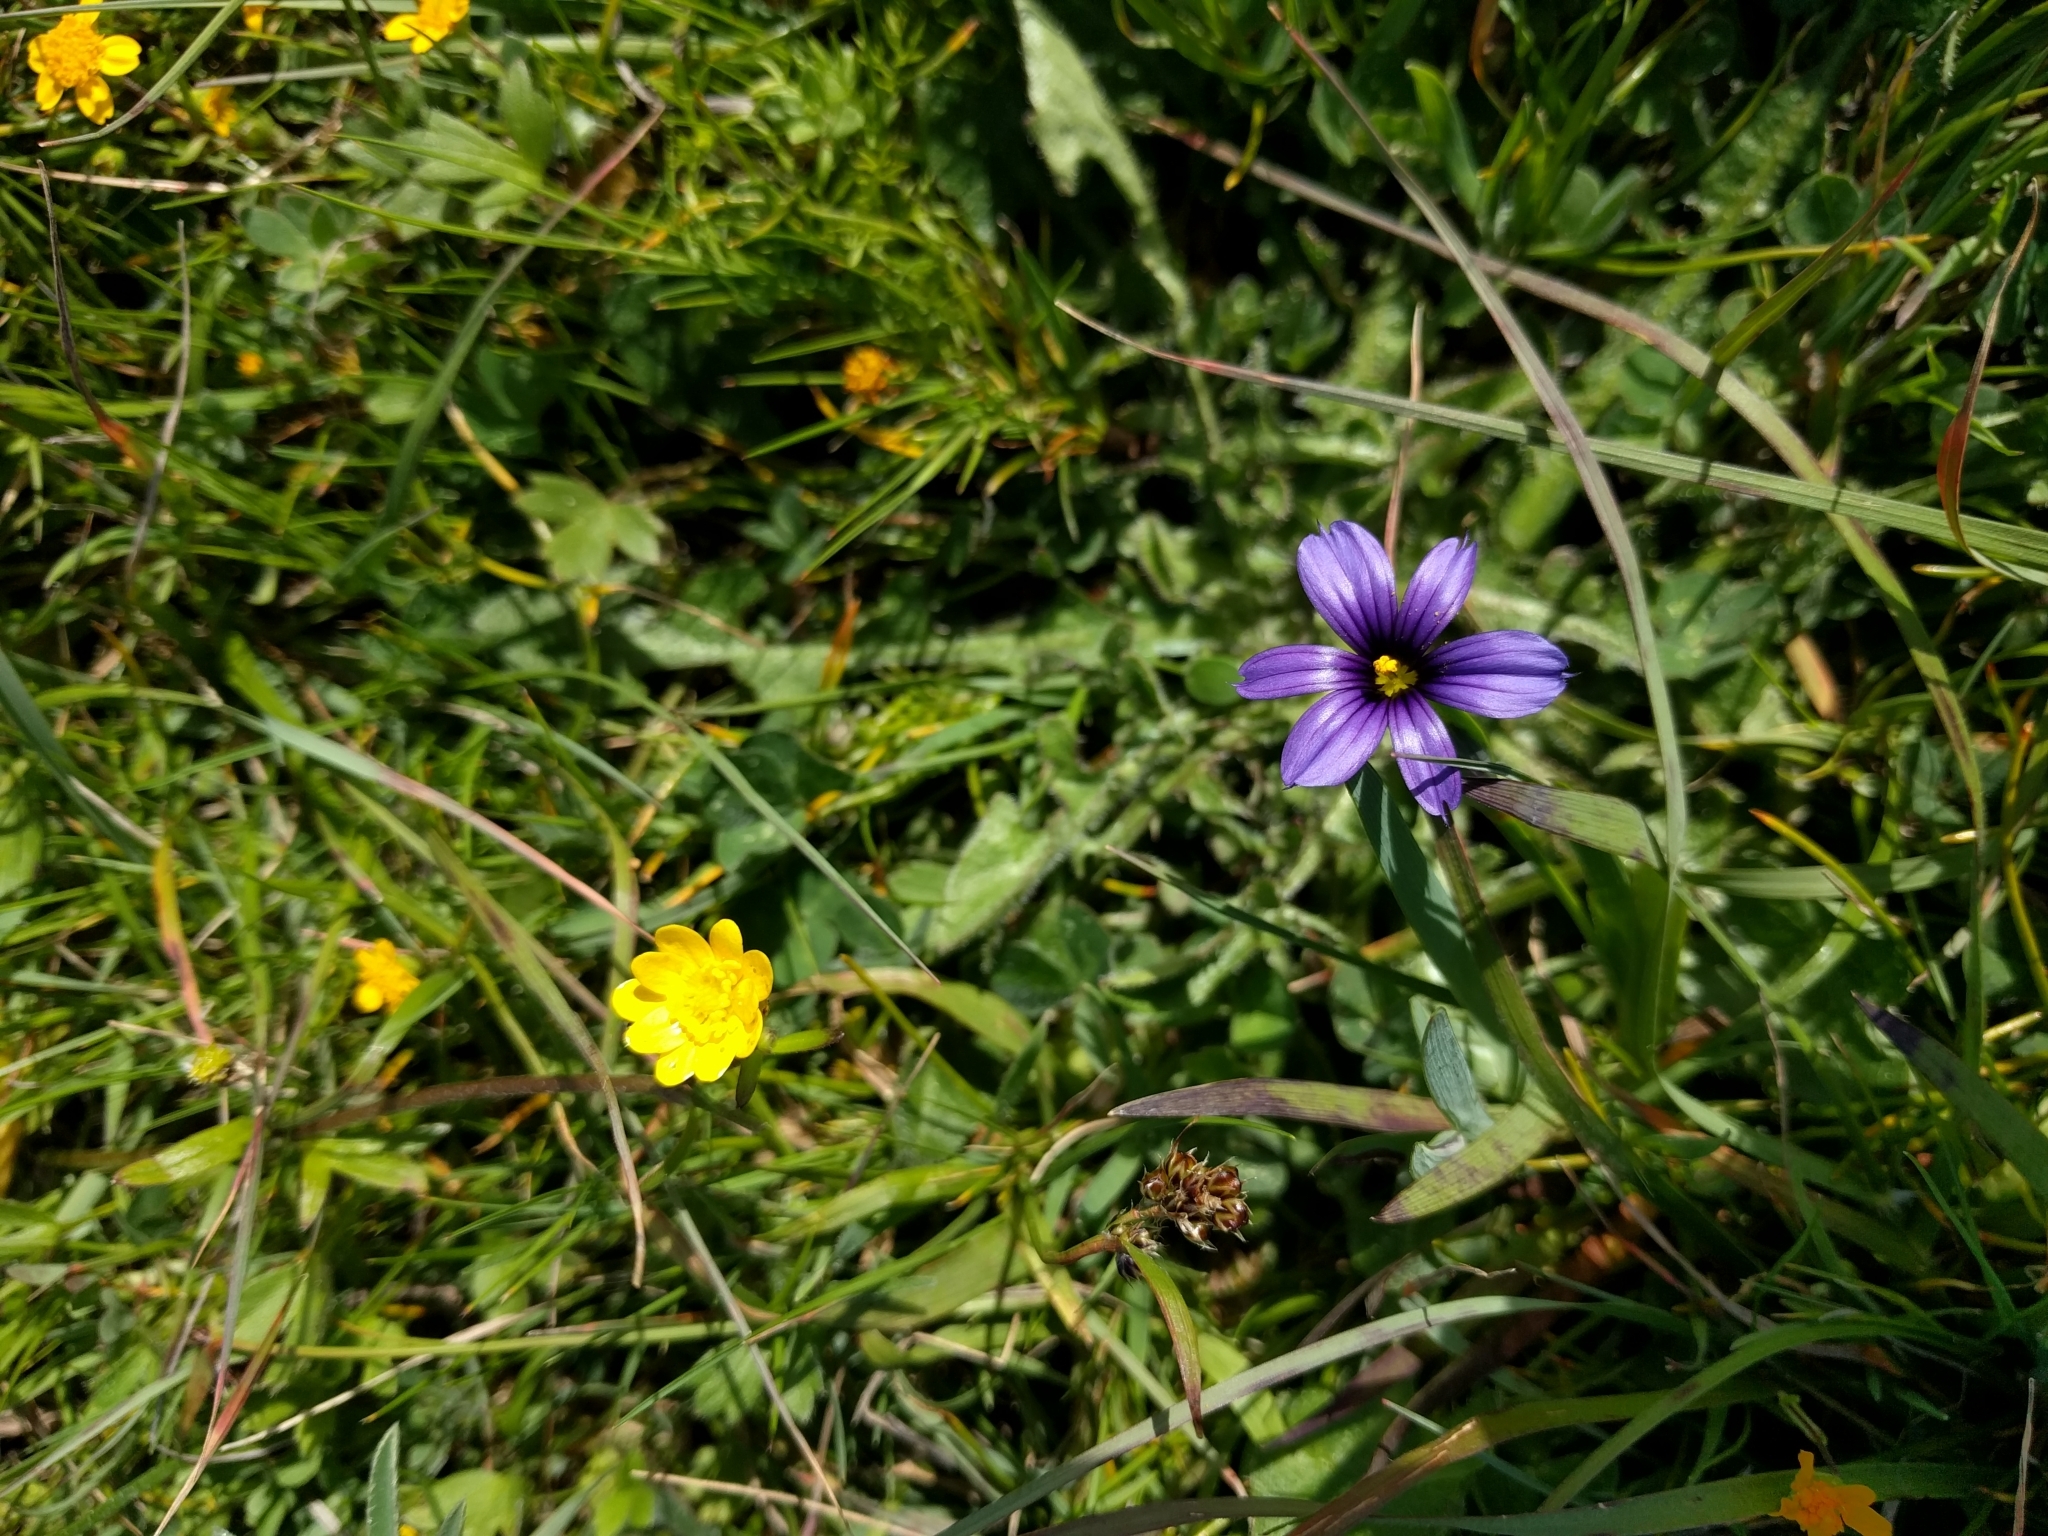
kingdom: Plantae
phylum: Tracheophyta
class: Liliopsida
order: Asparagales
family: Iridaceae
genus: Sisyrinchium
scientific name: Sisyrinchium bellum
